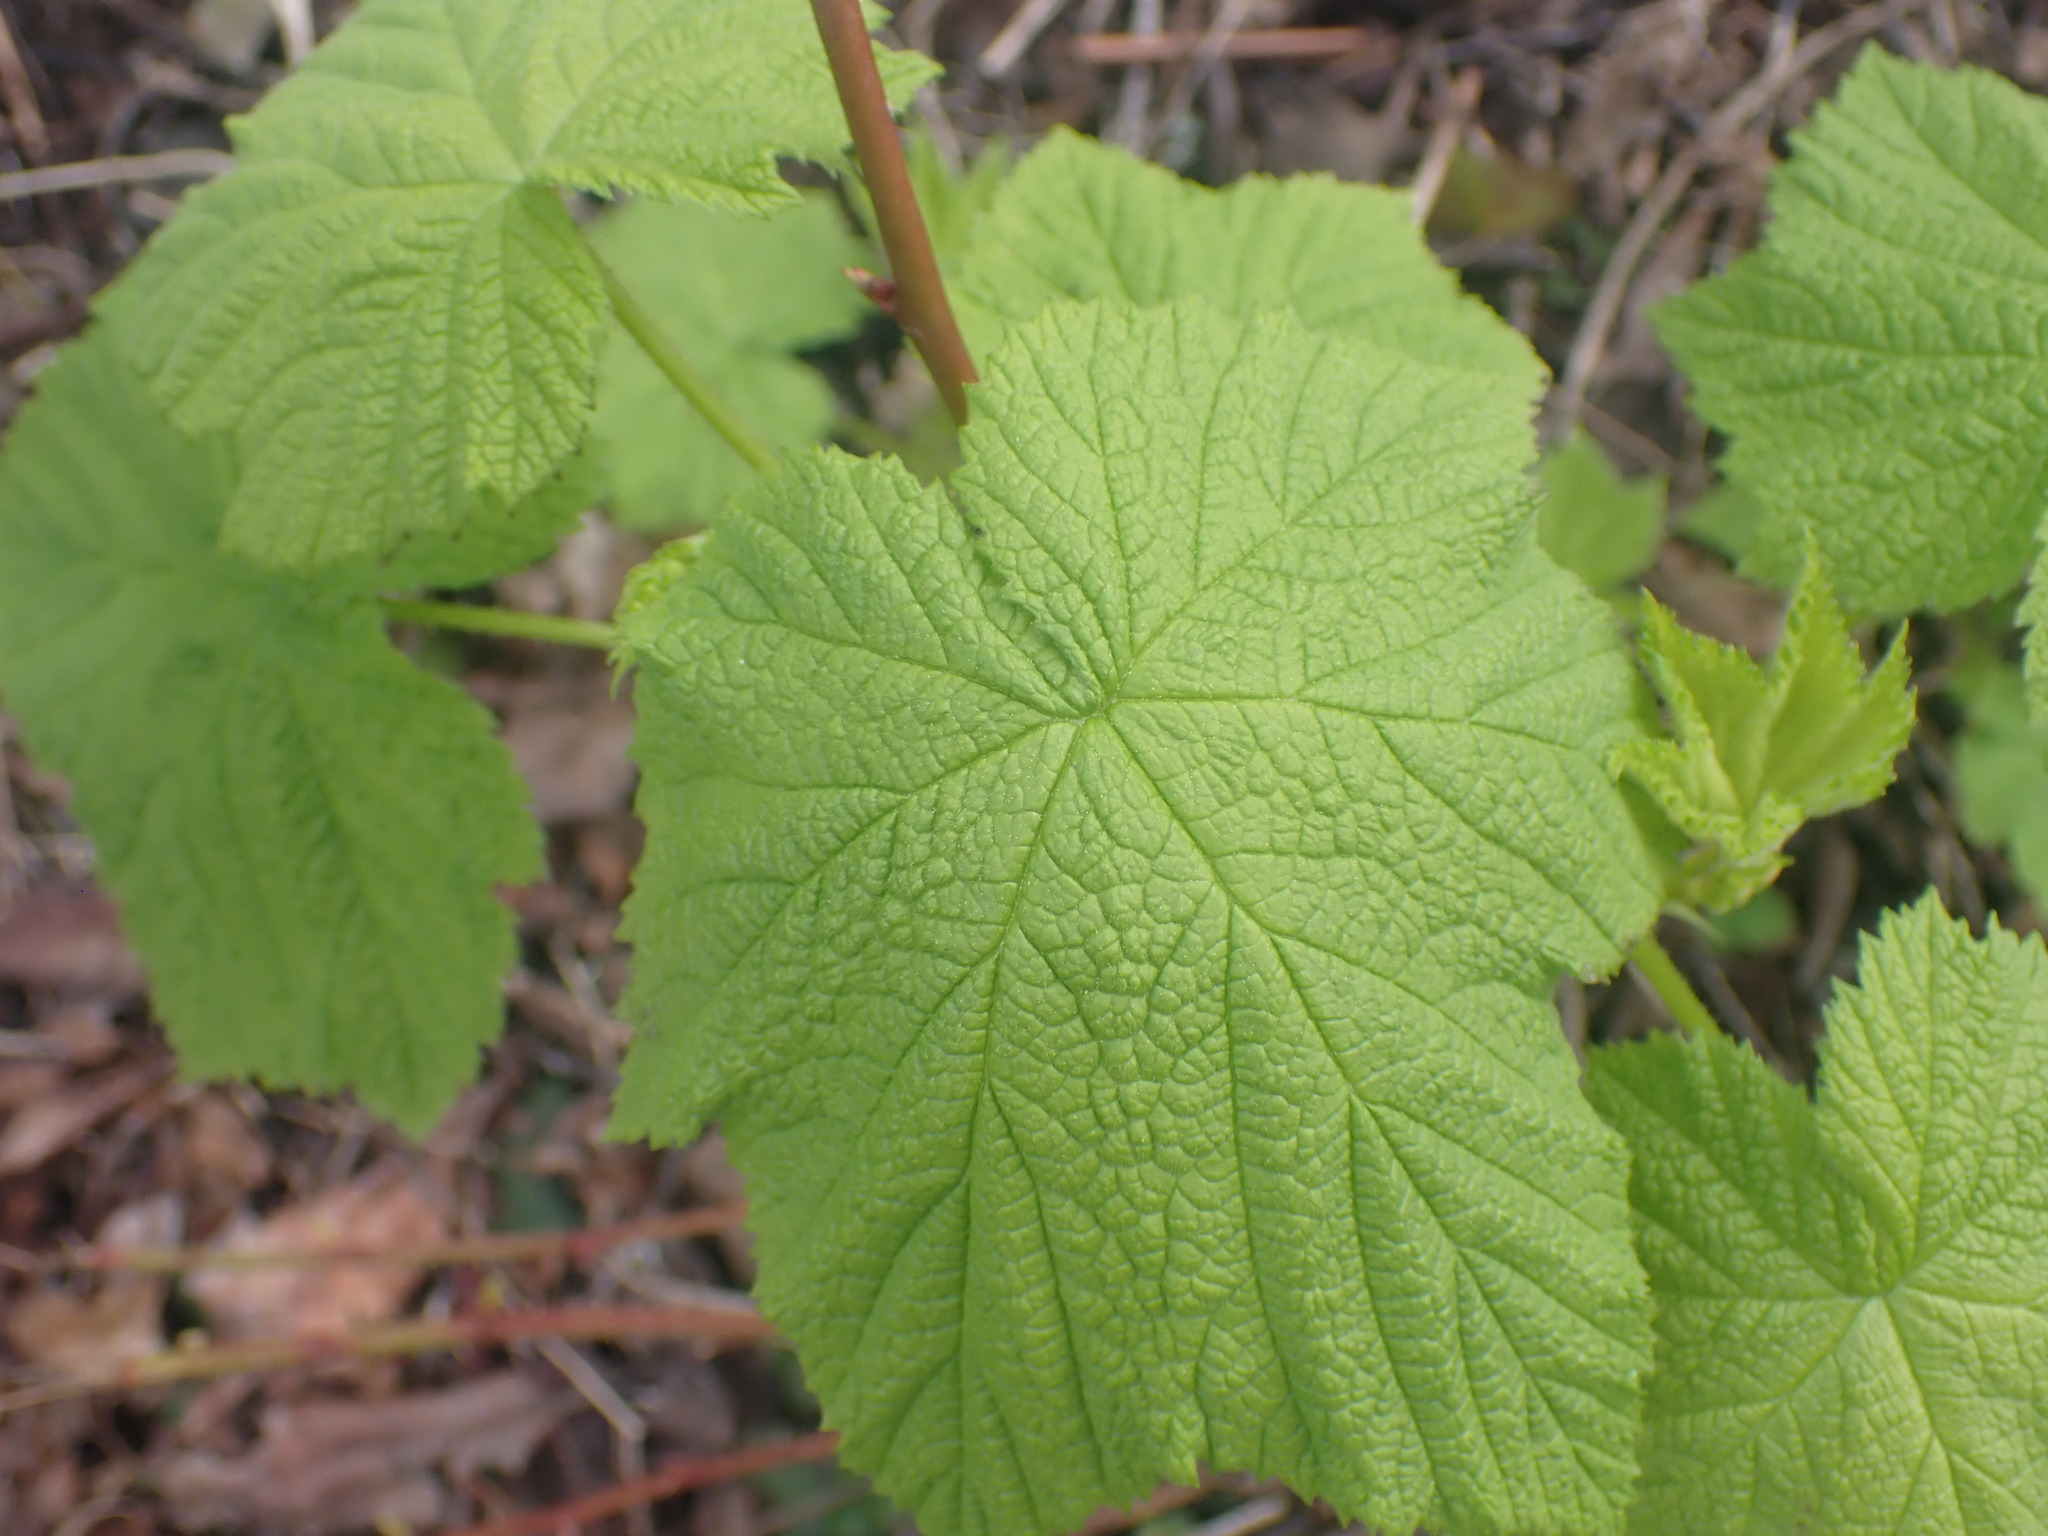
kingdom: Plantae
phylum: Tracheophyta
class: Magnoliopsida
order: Rosales
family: Rosaceae
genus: Rubus
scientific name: Rubus parviflorus
